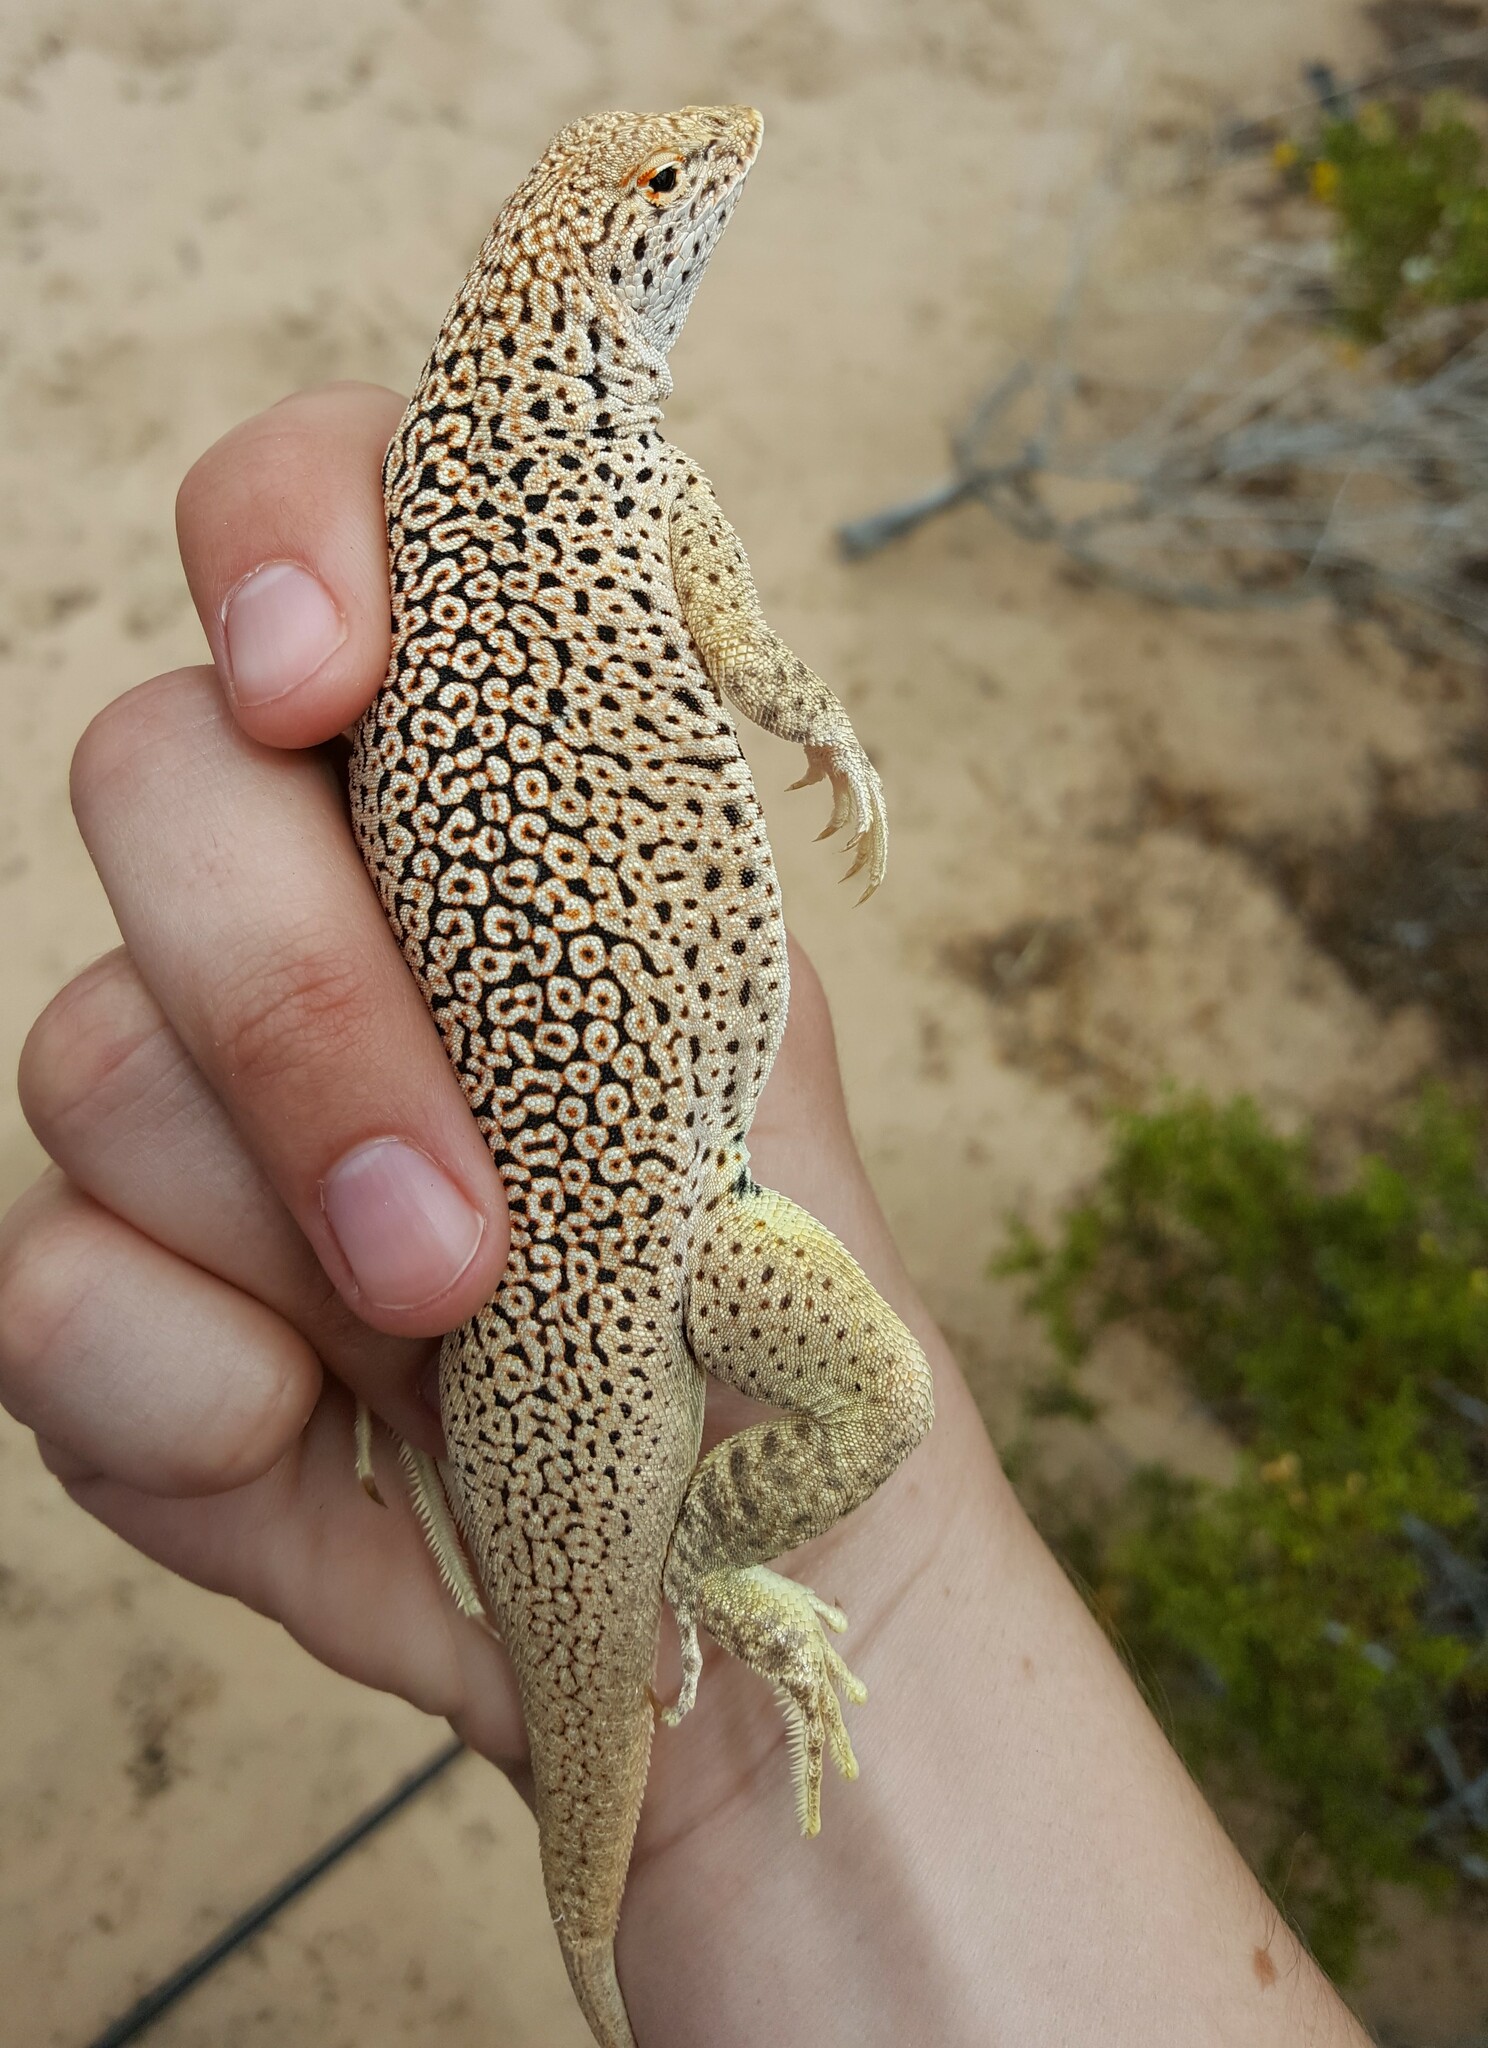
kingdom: Animalia
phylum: Chordata
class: Squamata
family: Phrynosomatidae
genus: Uma
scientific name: Uma scoparia
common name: Mojave fringe-toed lizard
